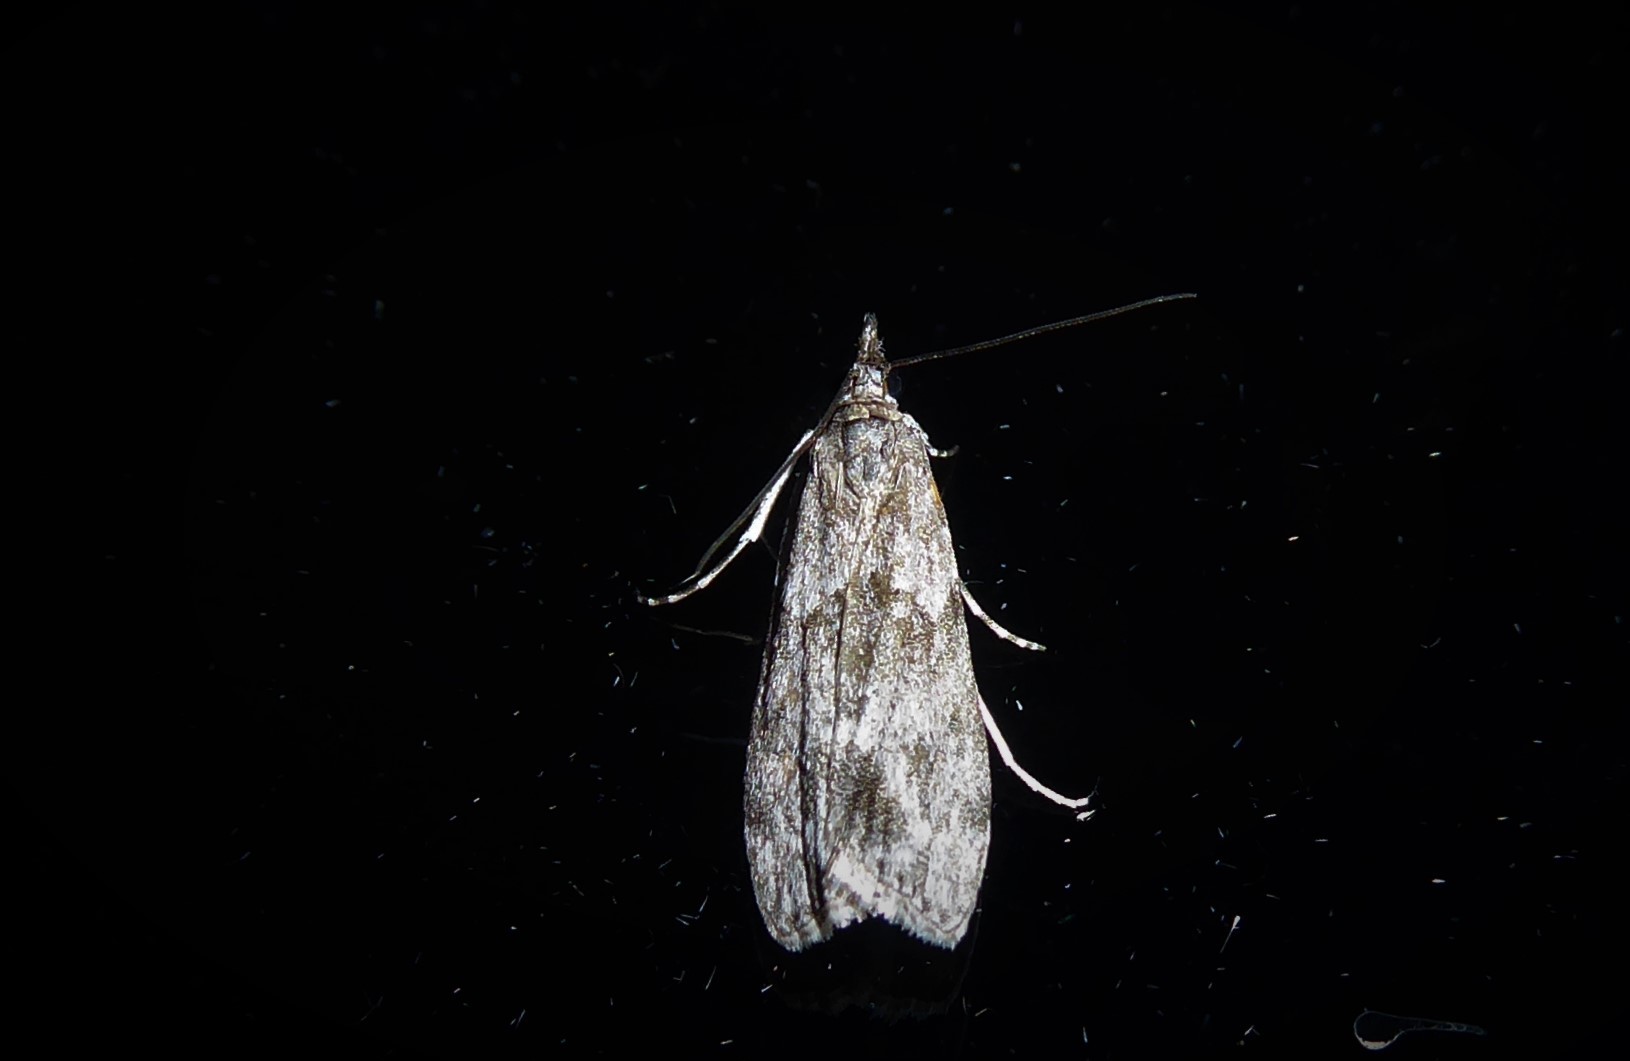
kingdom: Animalia
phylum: Arthropoda
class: Insecta
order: Lepidoptera
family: Crambidae
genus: Eudonia
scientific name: Eudonia rakaiensis
